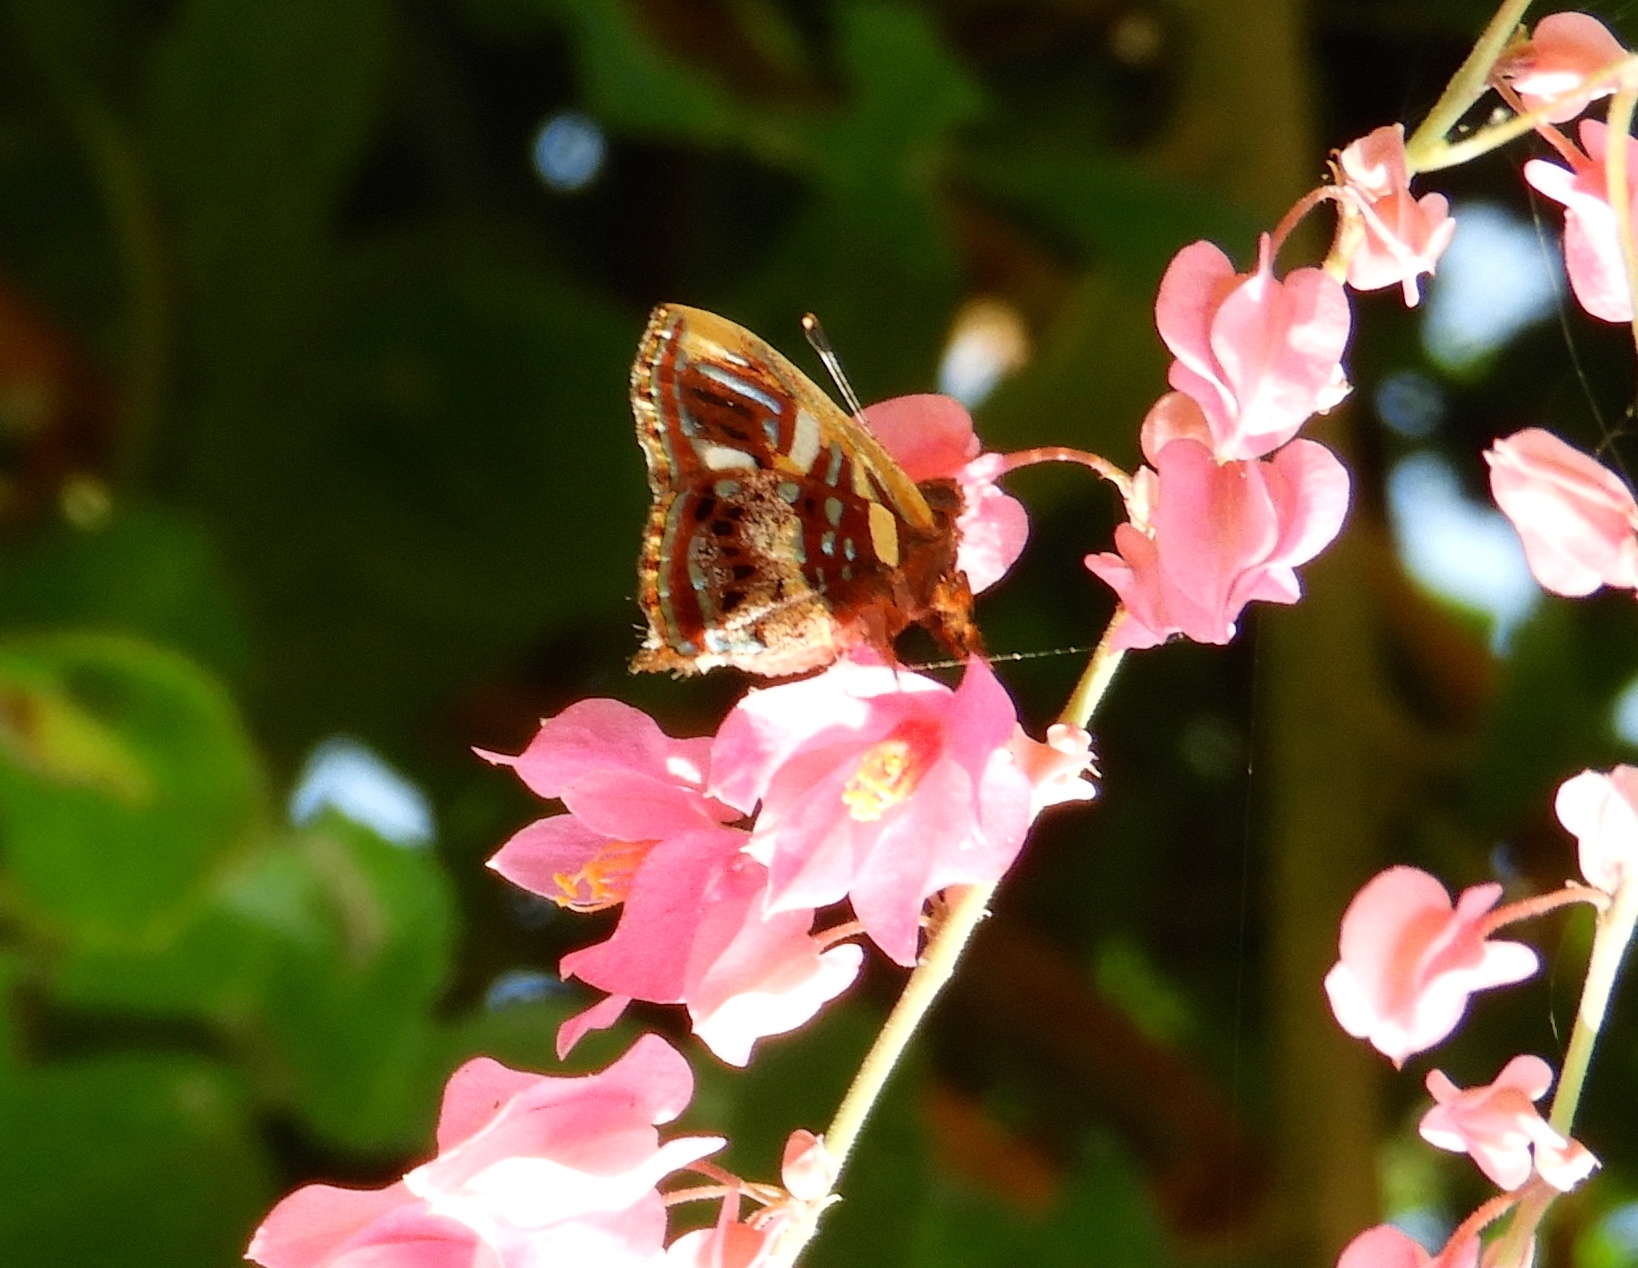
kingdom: Animalia
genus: Anteros
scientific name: Anteros carausius
